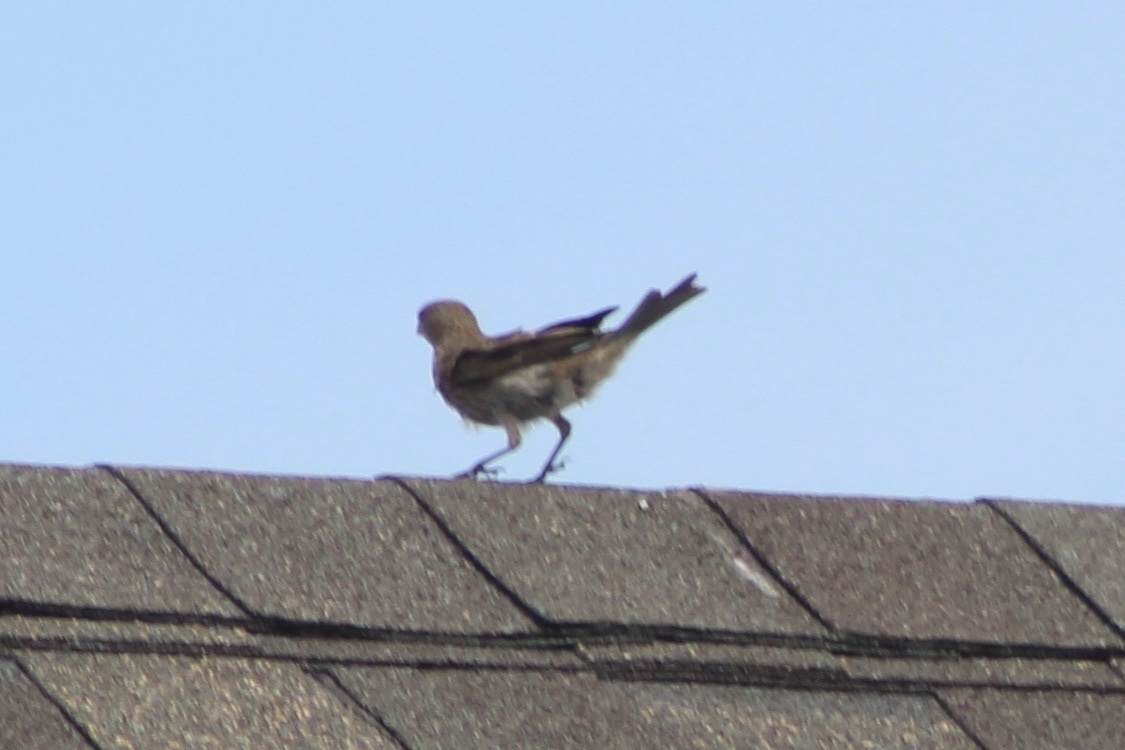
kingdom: Animalia
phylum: Chordata
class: Aves
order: Passeriformes
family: Fringillidae
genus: Haemorhous
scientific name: Haemorhous mexicanus
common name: House finch
